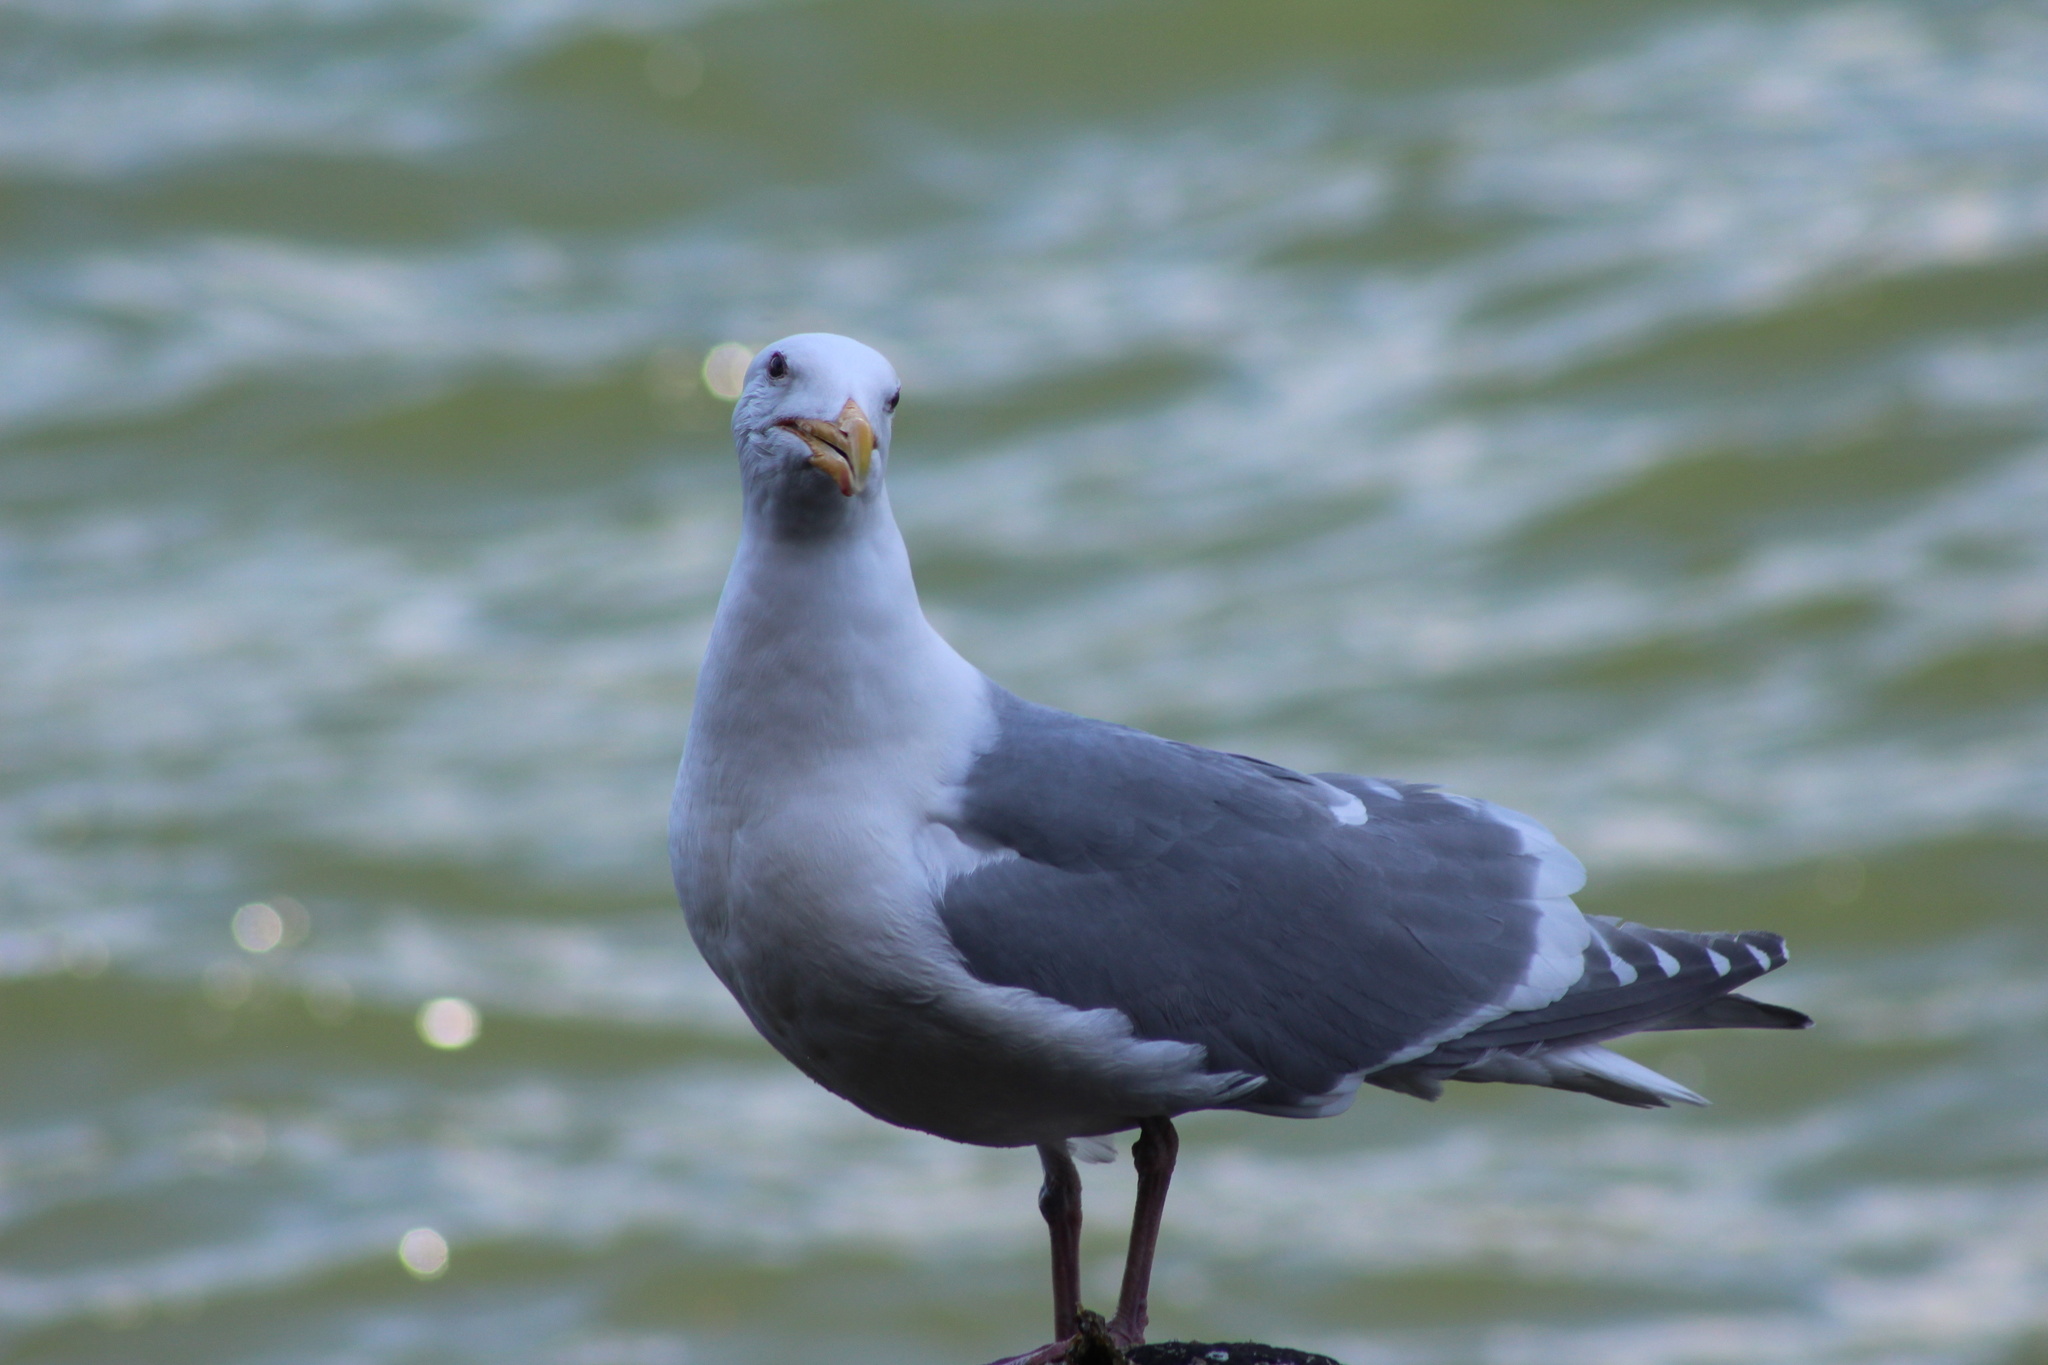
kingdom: Animalia
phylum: Chordata
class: Aves
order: Charadriiformes
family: Laridae
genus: Larus
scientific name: Larus
